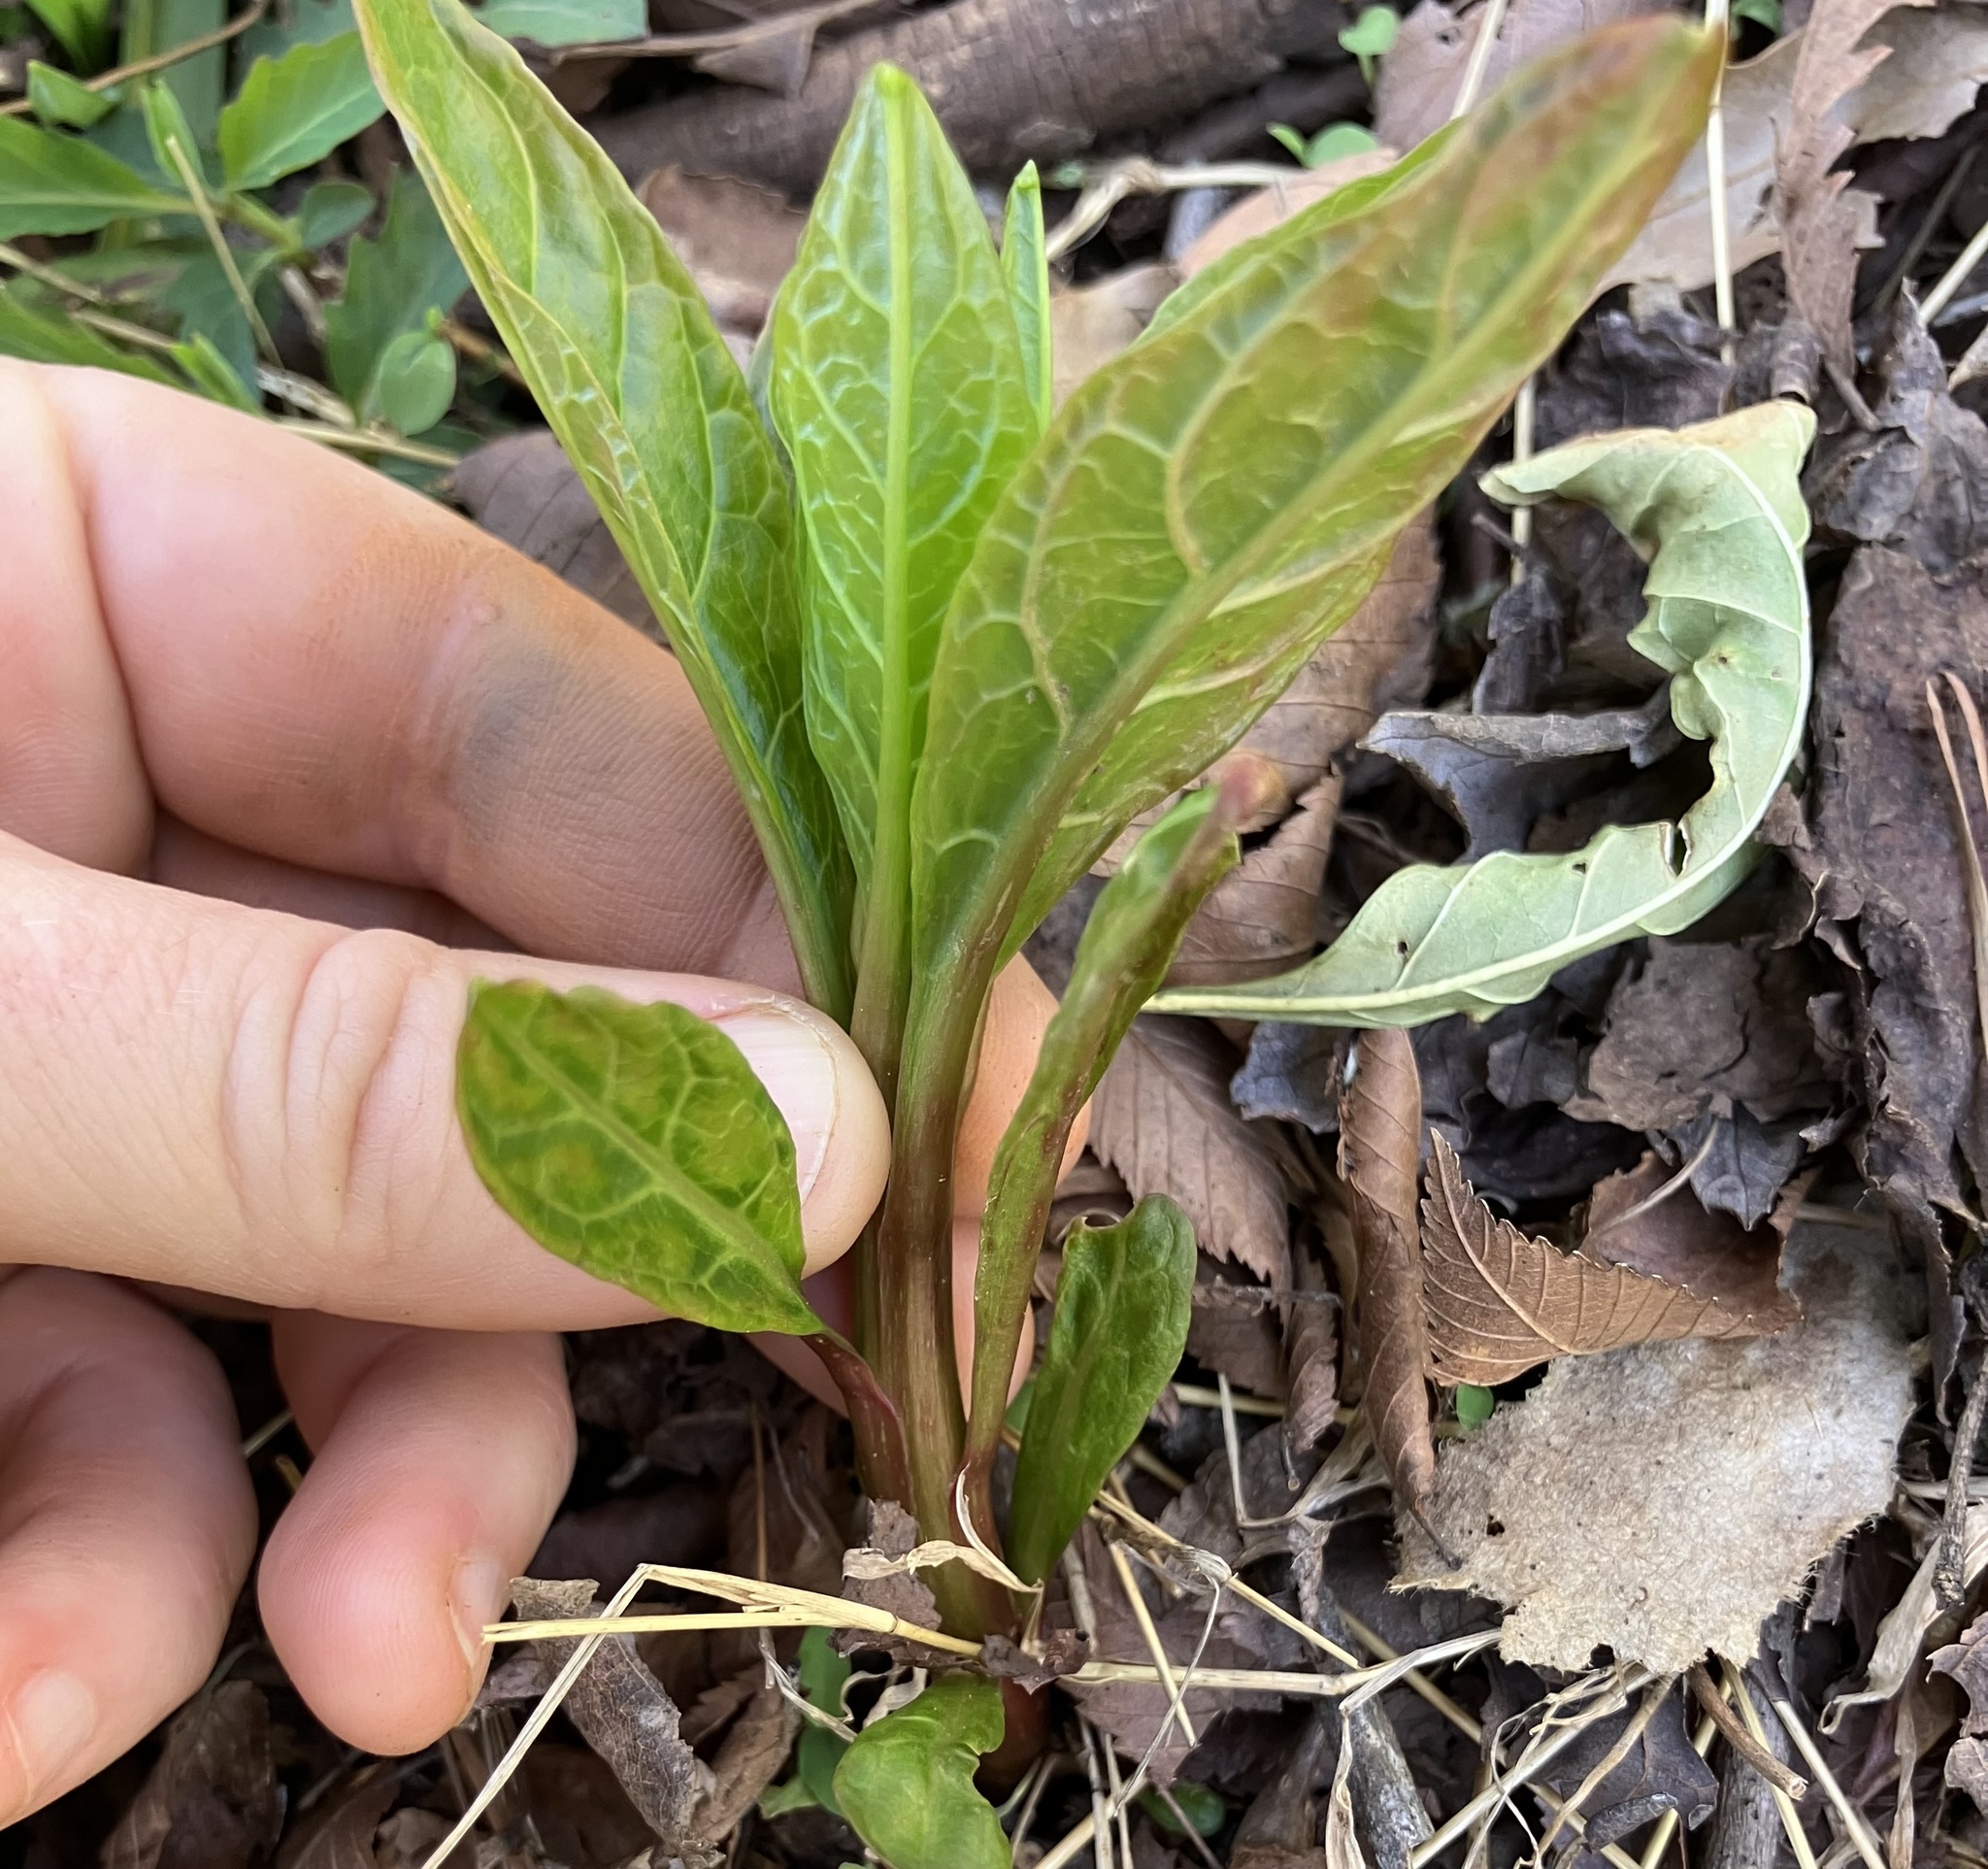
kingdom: Plantae
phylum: Tracheophyta
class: Magnoliopsida
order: Caryophyllales
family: Phytolaccaceae
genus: Phytolacca
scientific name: Phytolacca americana
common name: American pokeweed
